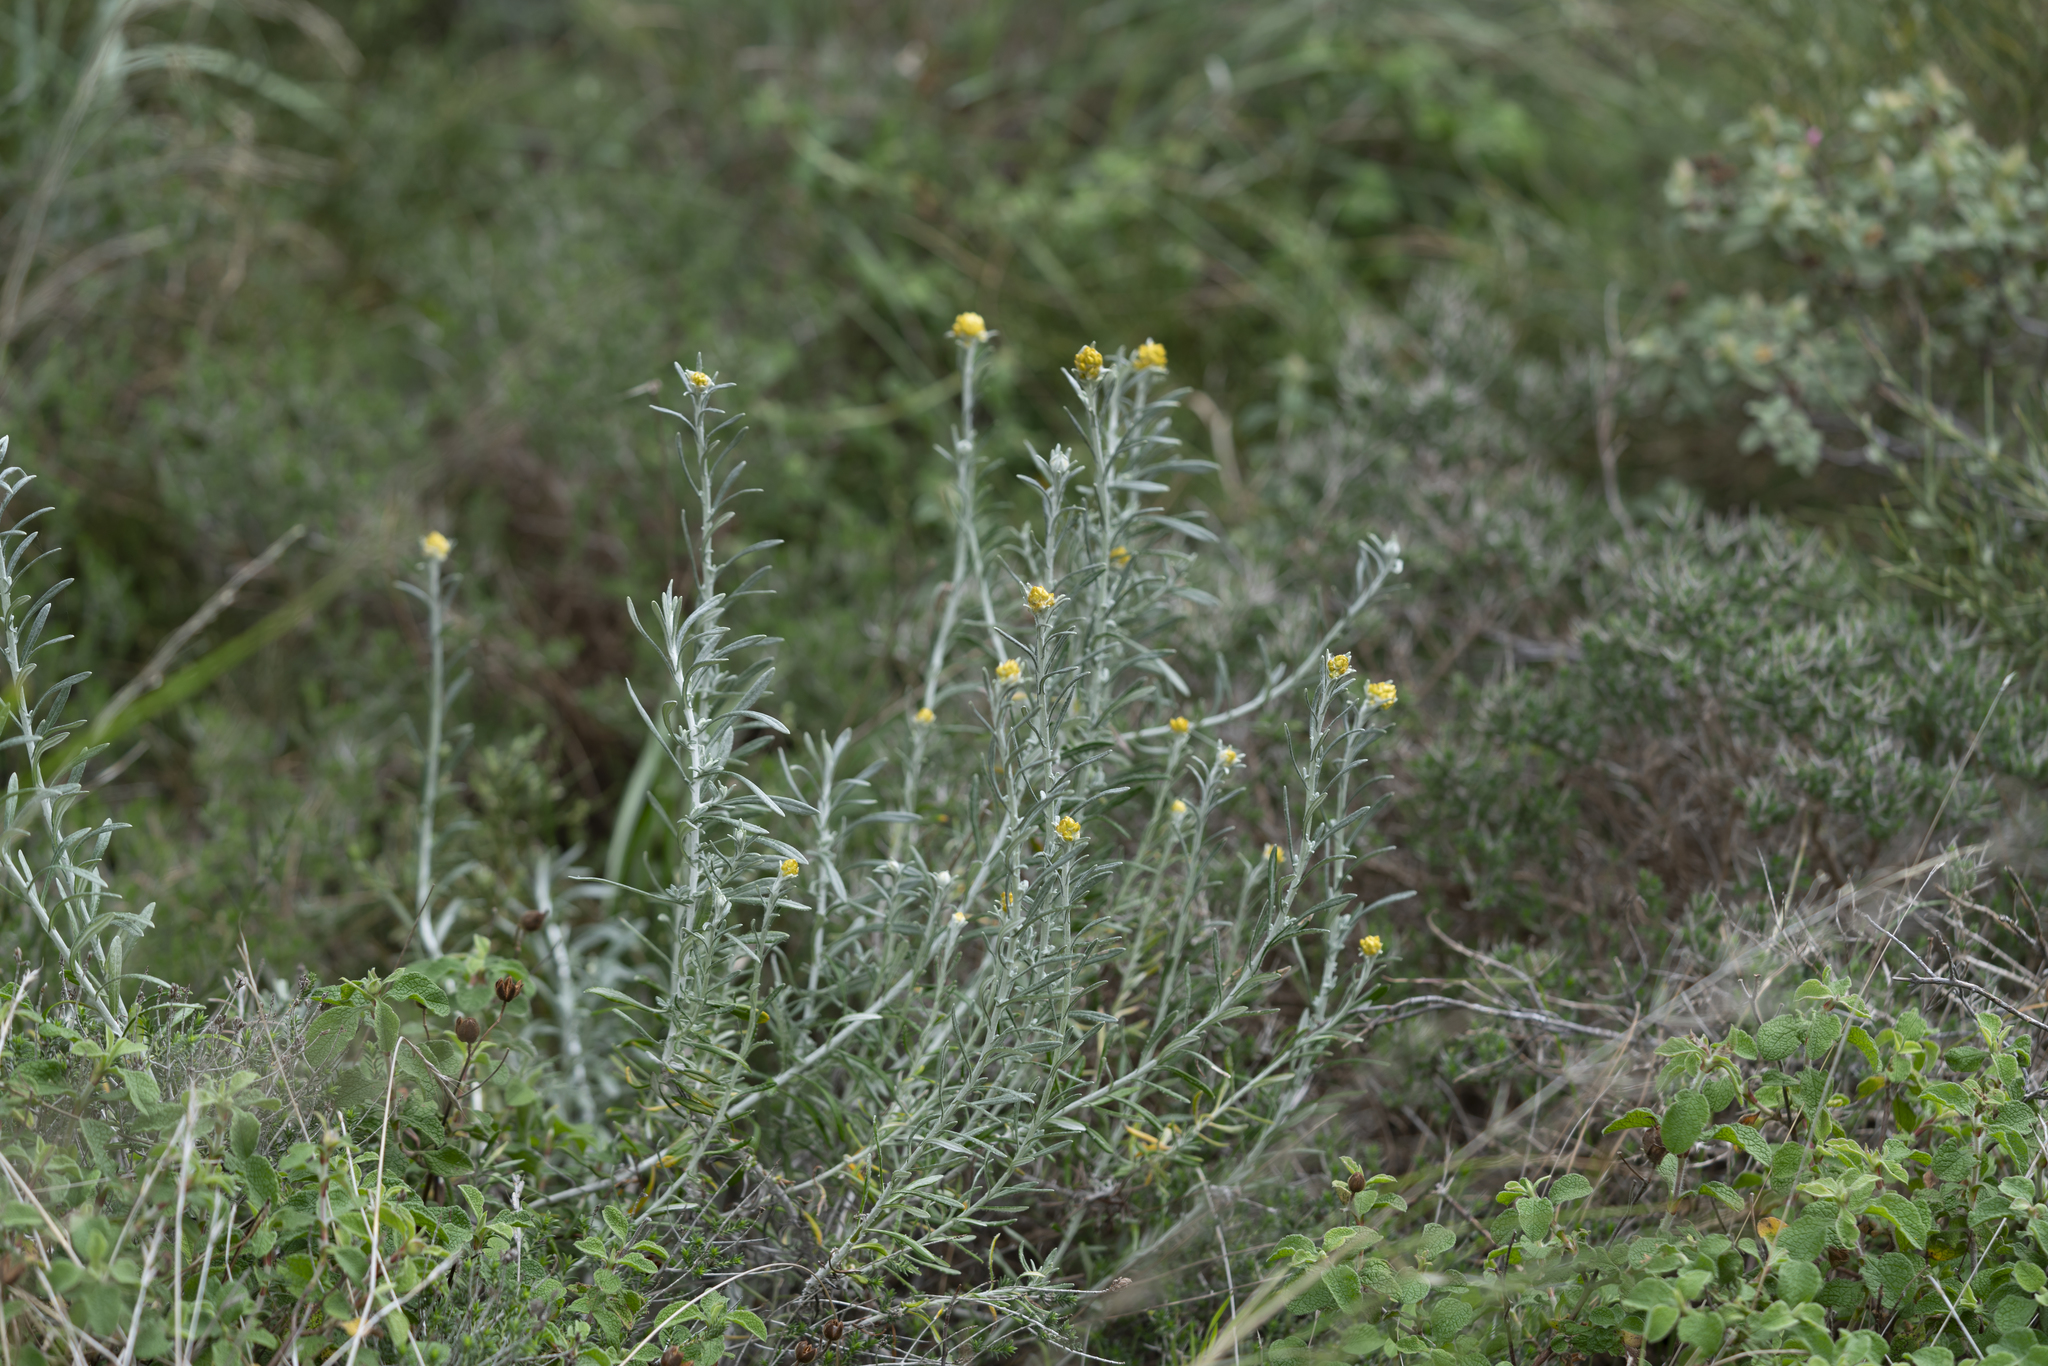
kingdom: Plantae
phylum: Tracheophyta
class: Magnoliopsida
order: Asterales
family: Asteraceae
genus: Helichrysum
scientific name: Helichrysum stoechas
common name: Goldilocks
